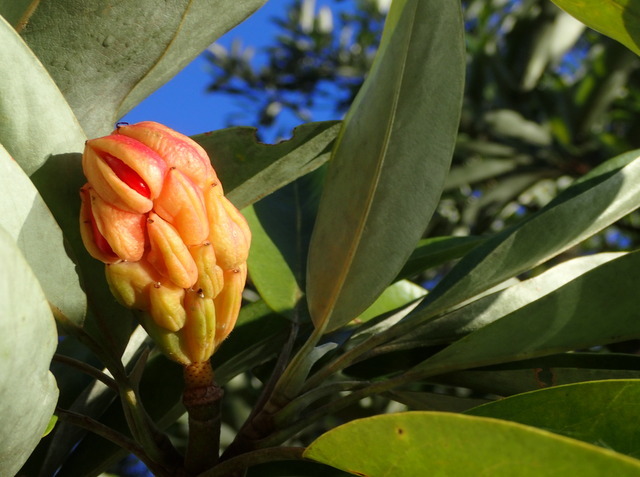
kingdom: Plantae
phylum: Tracheophyta
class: Magnoliopsida
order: Magnoliales
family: Magnoliaceae
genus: Magnolia
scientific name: Magnolia virginiana
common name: Swamp bay
